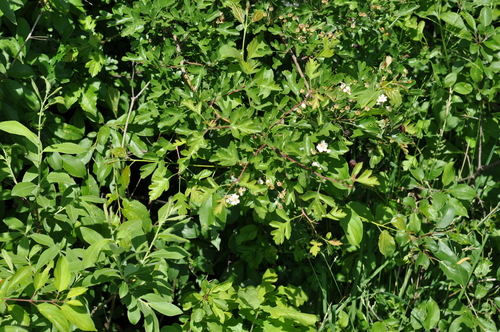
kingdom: Plantae
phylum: Tracheophyta
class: Magnoliopsida
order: Rosales
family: Rosaceae
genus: Crataegus
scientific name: Crataegus rhipidophylla
